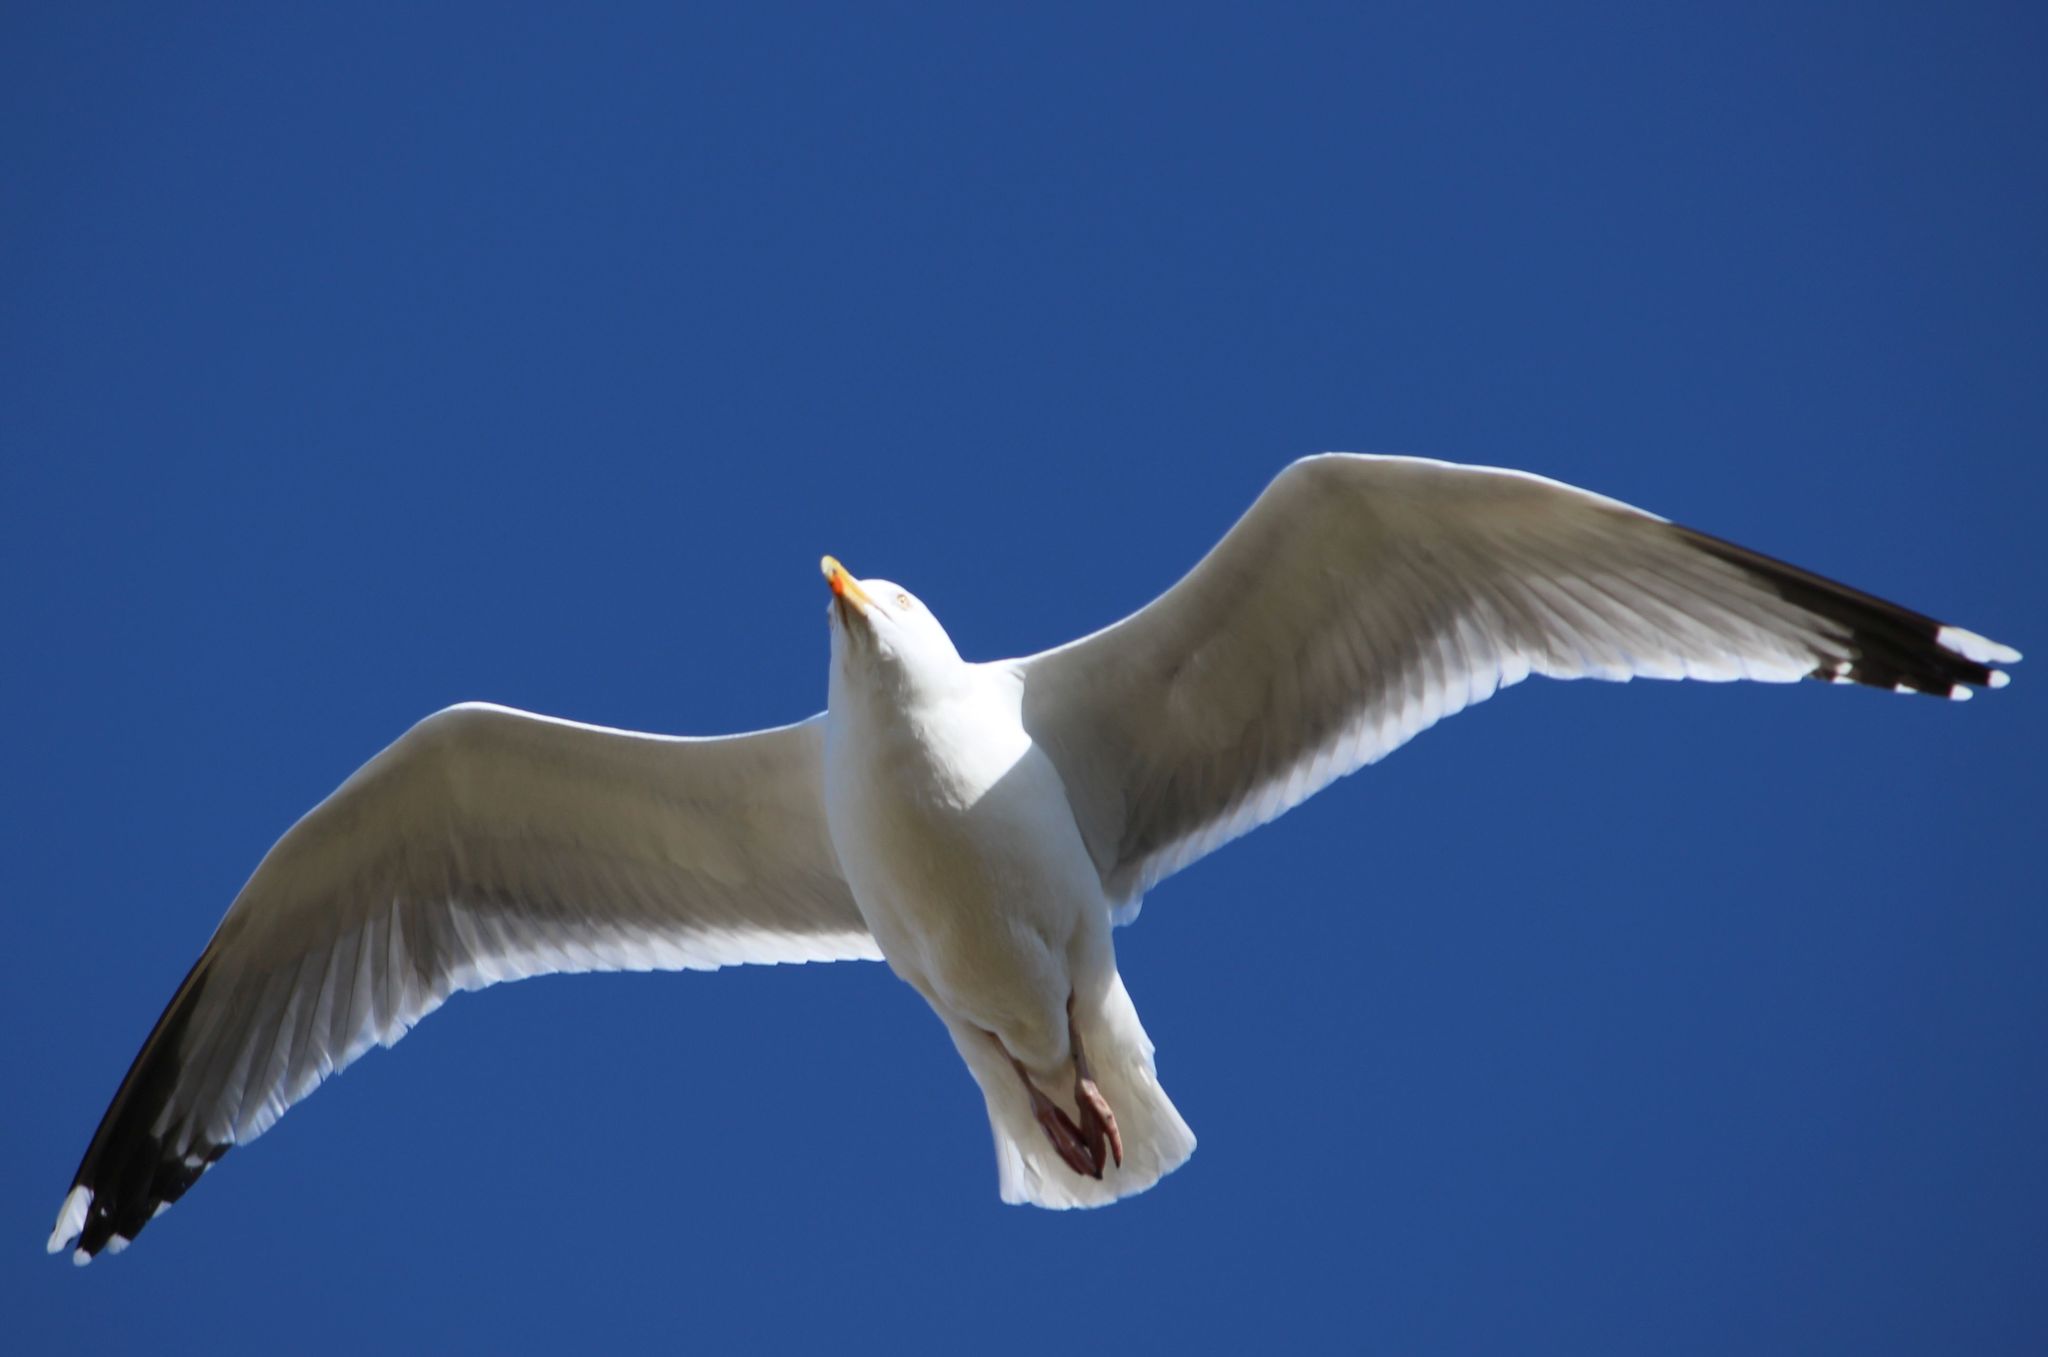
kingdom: Animalia
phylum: Chordata
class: Aves
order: Charadriiformes
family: Laridae
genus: Larus
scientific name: Larus argentatus
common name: Herring gull
